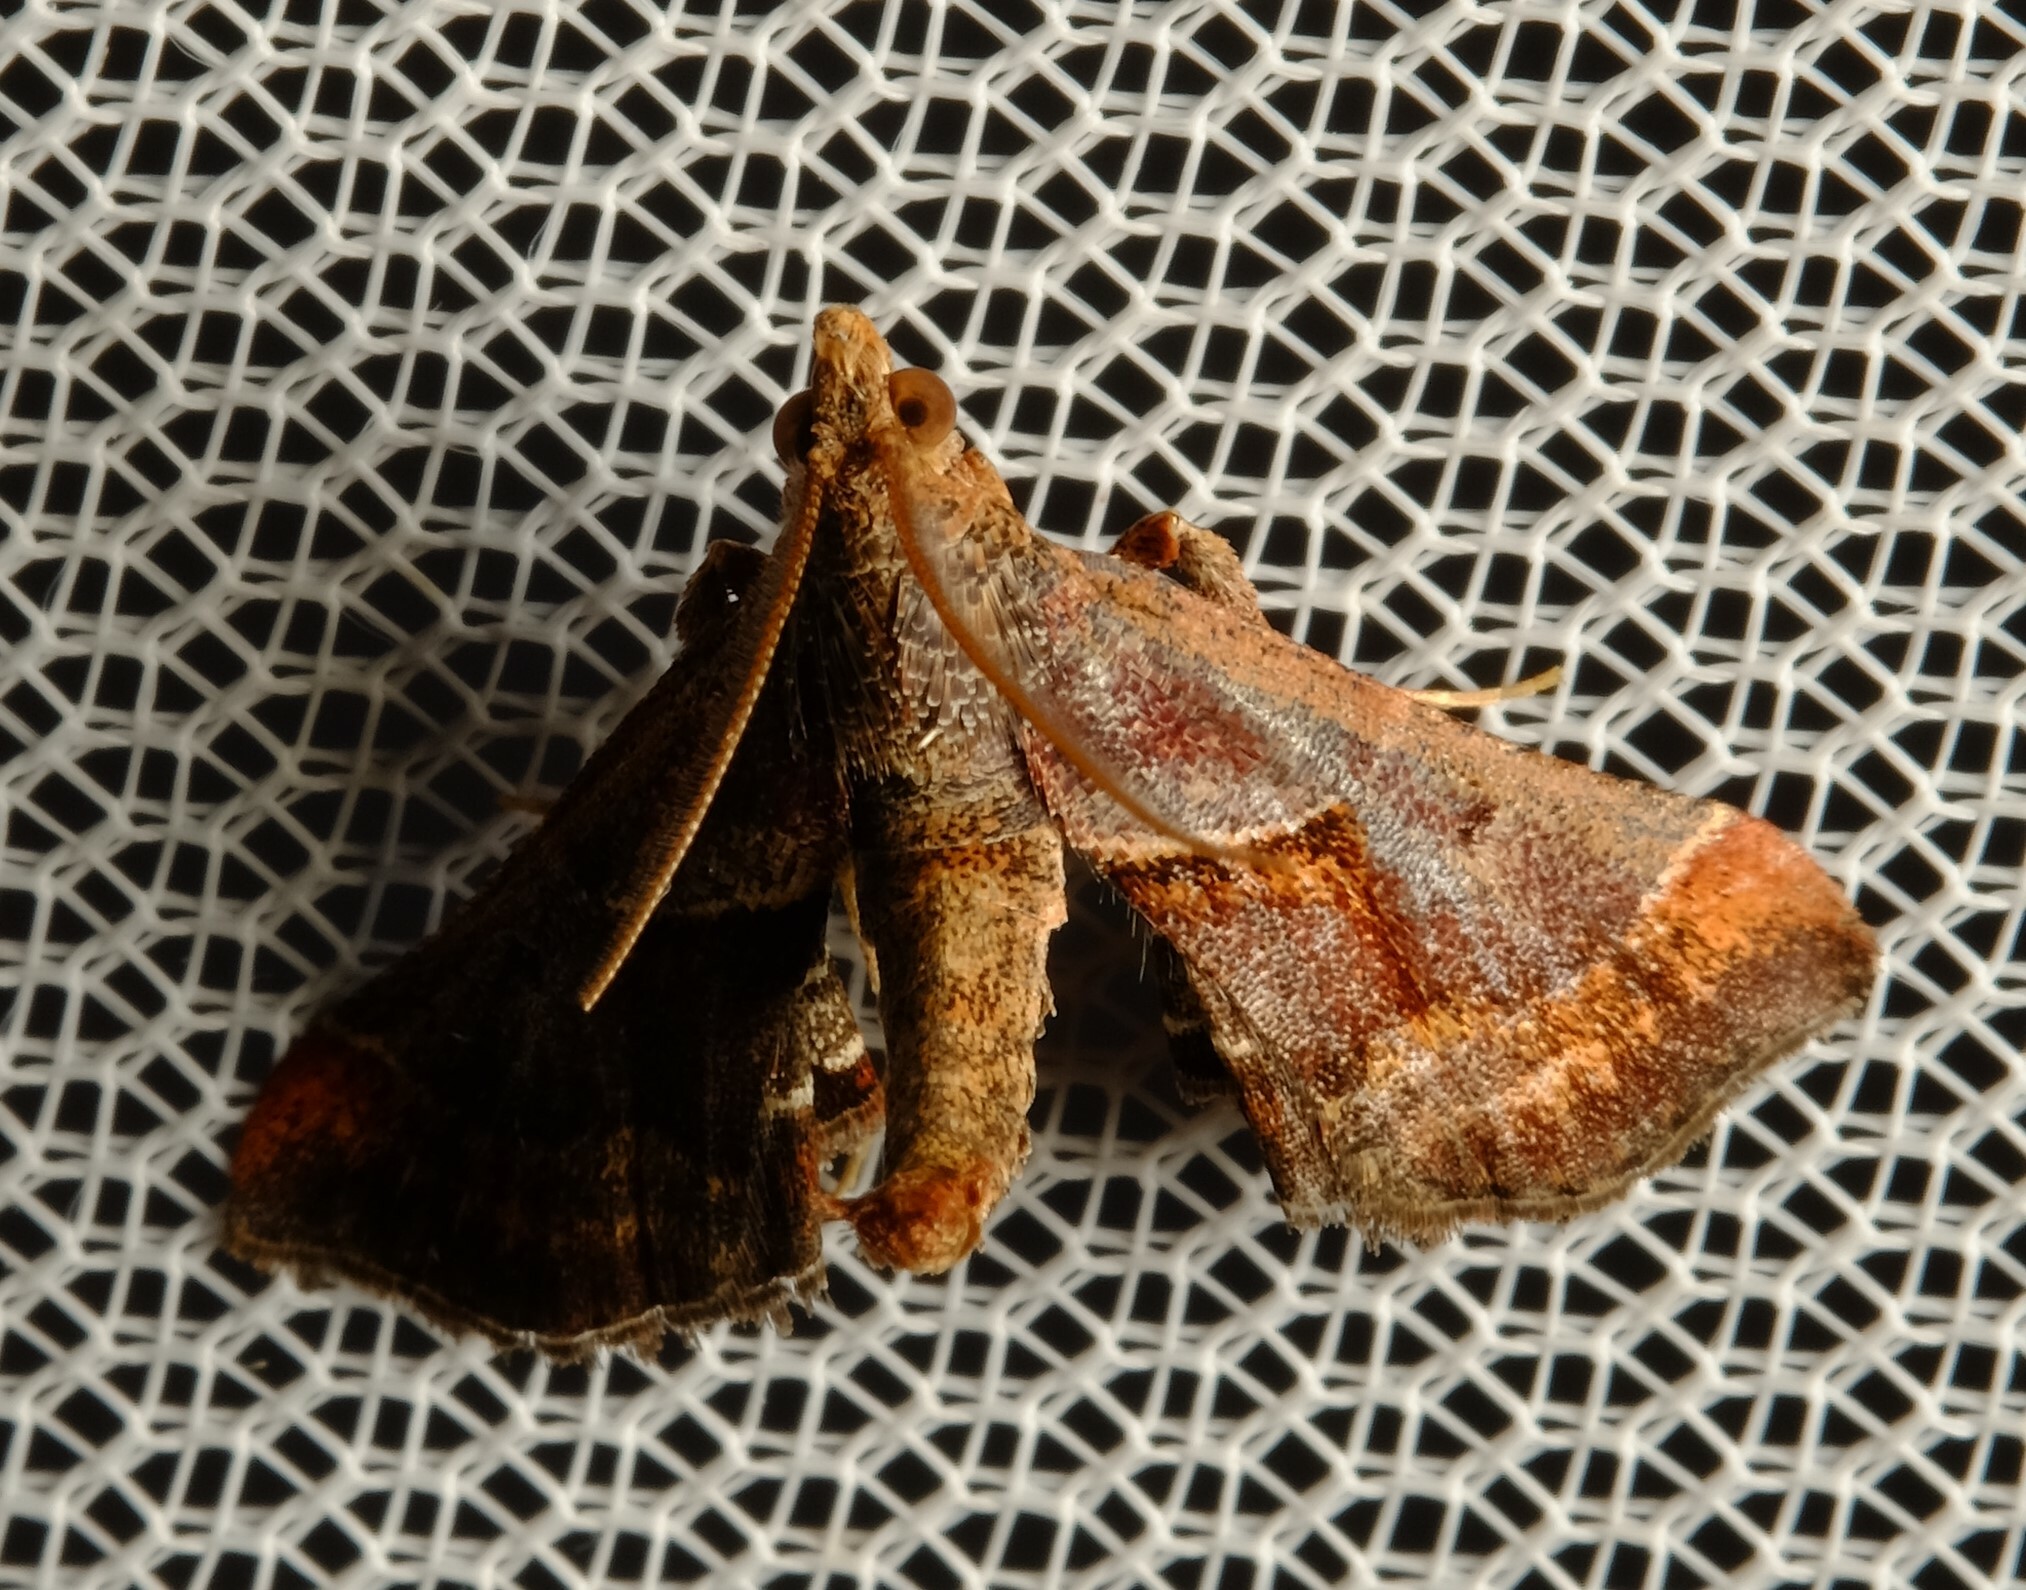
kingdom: Animalia
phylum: Arthropoda
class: Insecta
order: Lepidoptera
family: Pyralidae
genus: Gauna
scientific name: Gauna aegusalis
